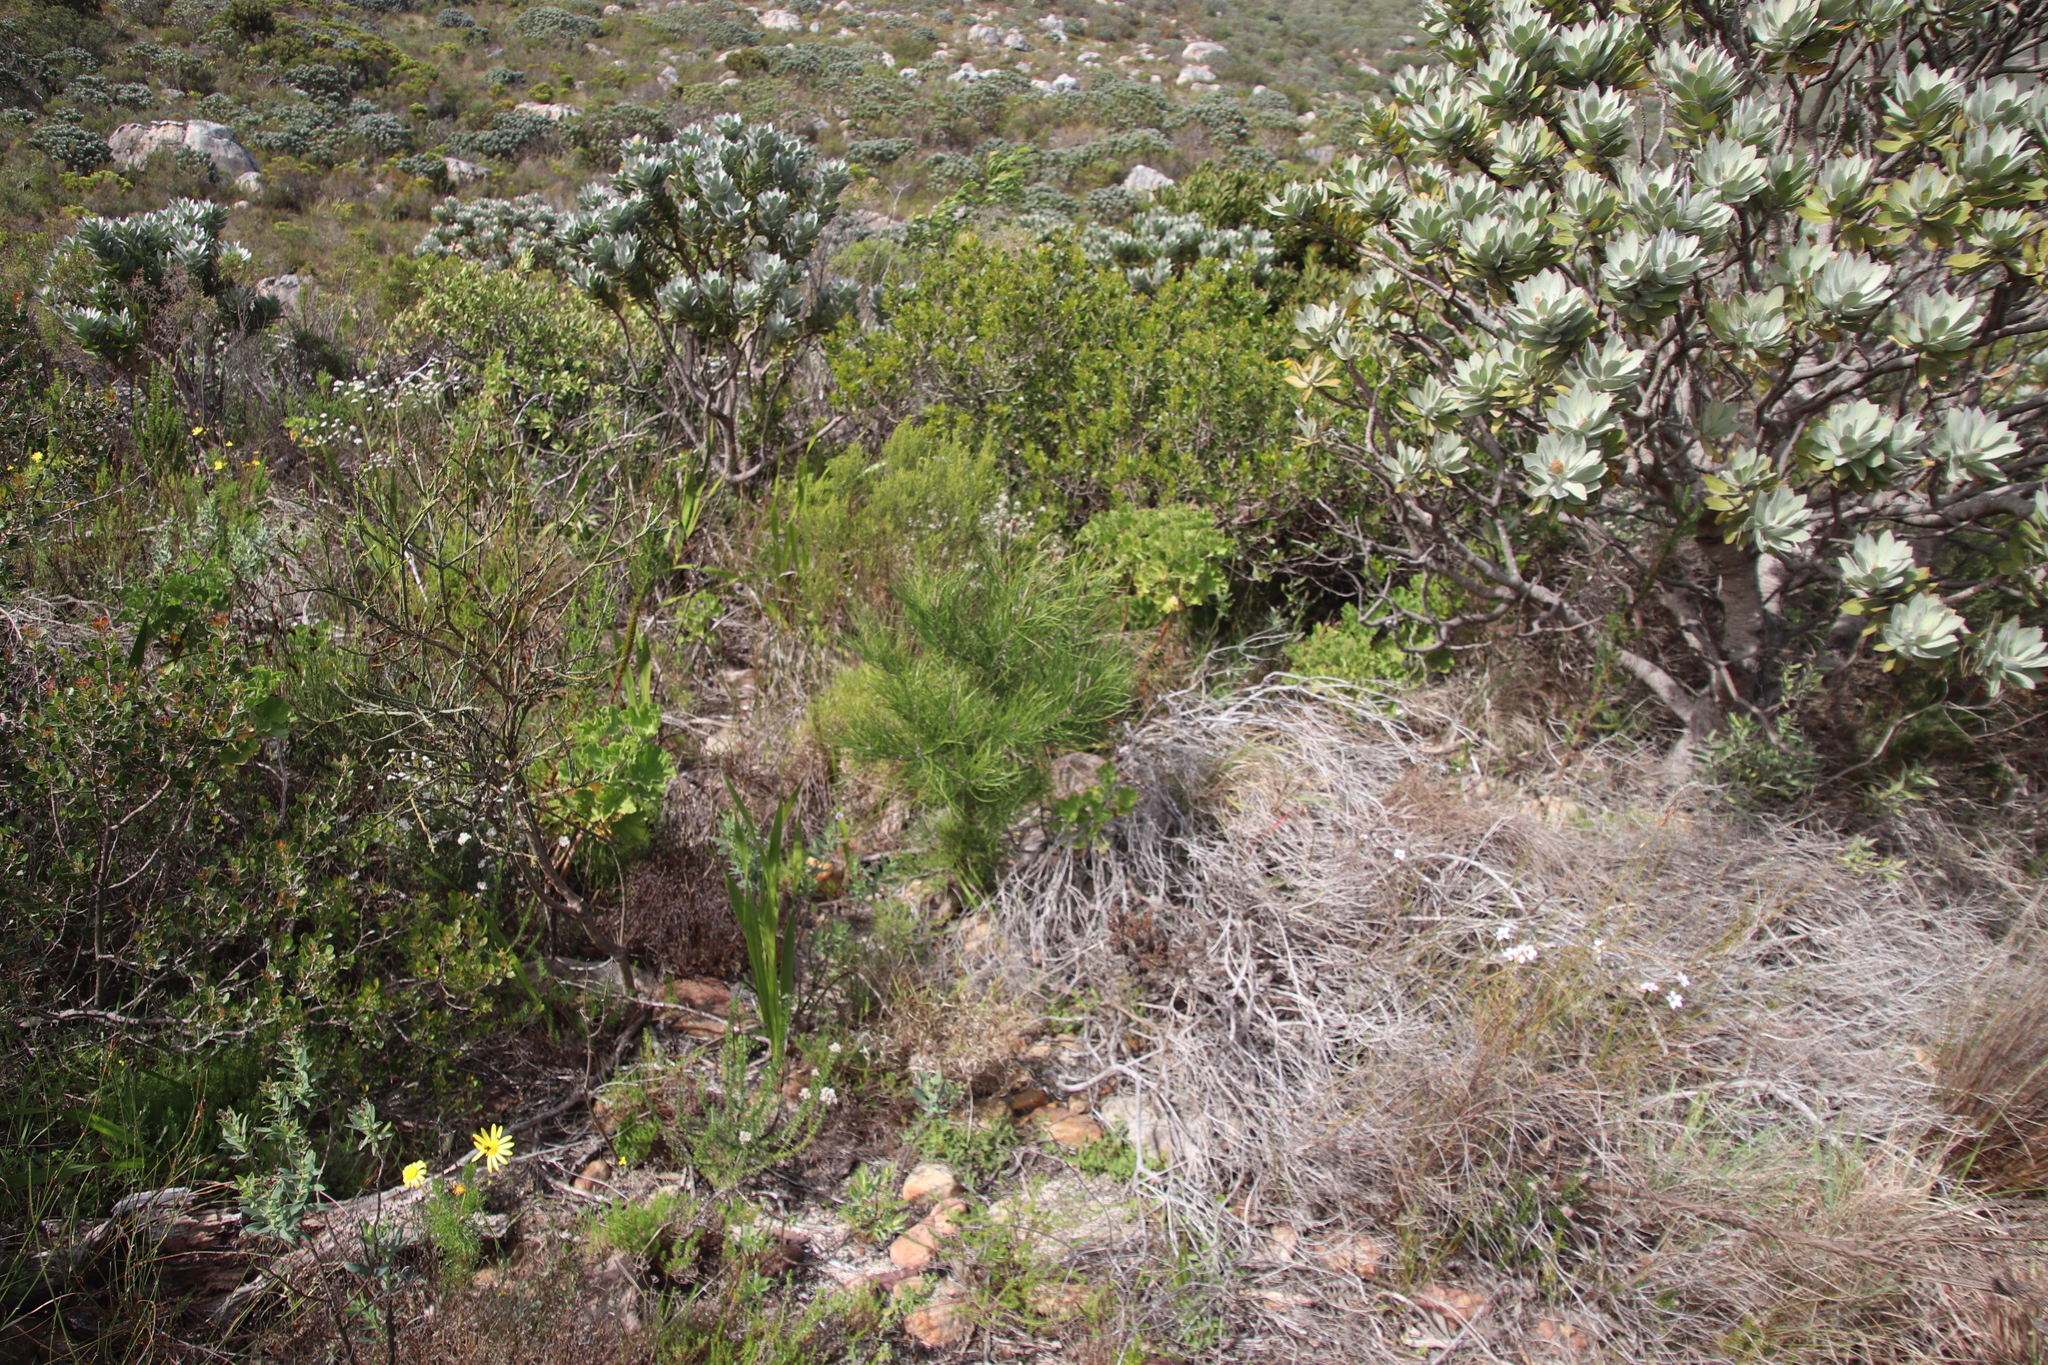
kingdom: Plantae
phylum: Tracheophyta
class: Pinopsida
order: Pinales
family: Pinaceae
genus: Pinus
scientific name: Pinus pinaster
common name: Maritime pine
